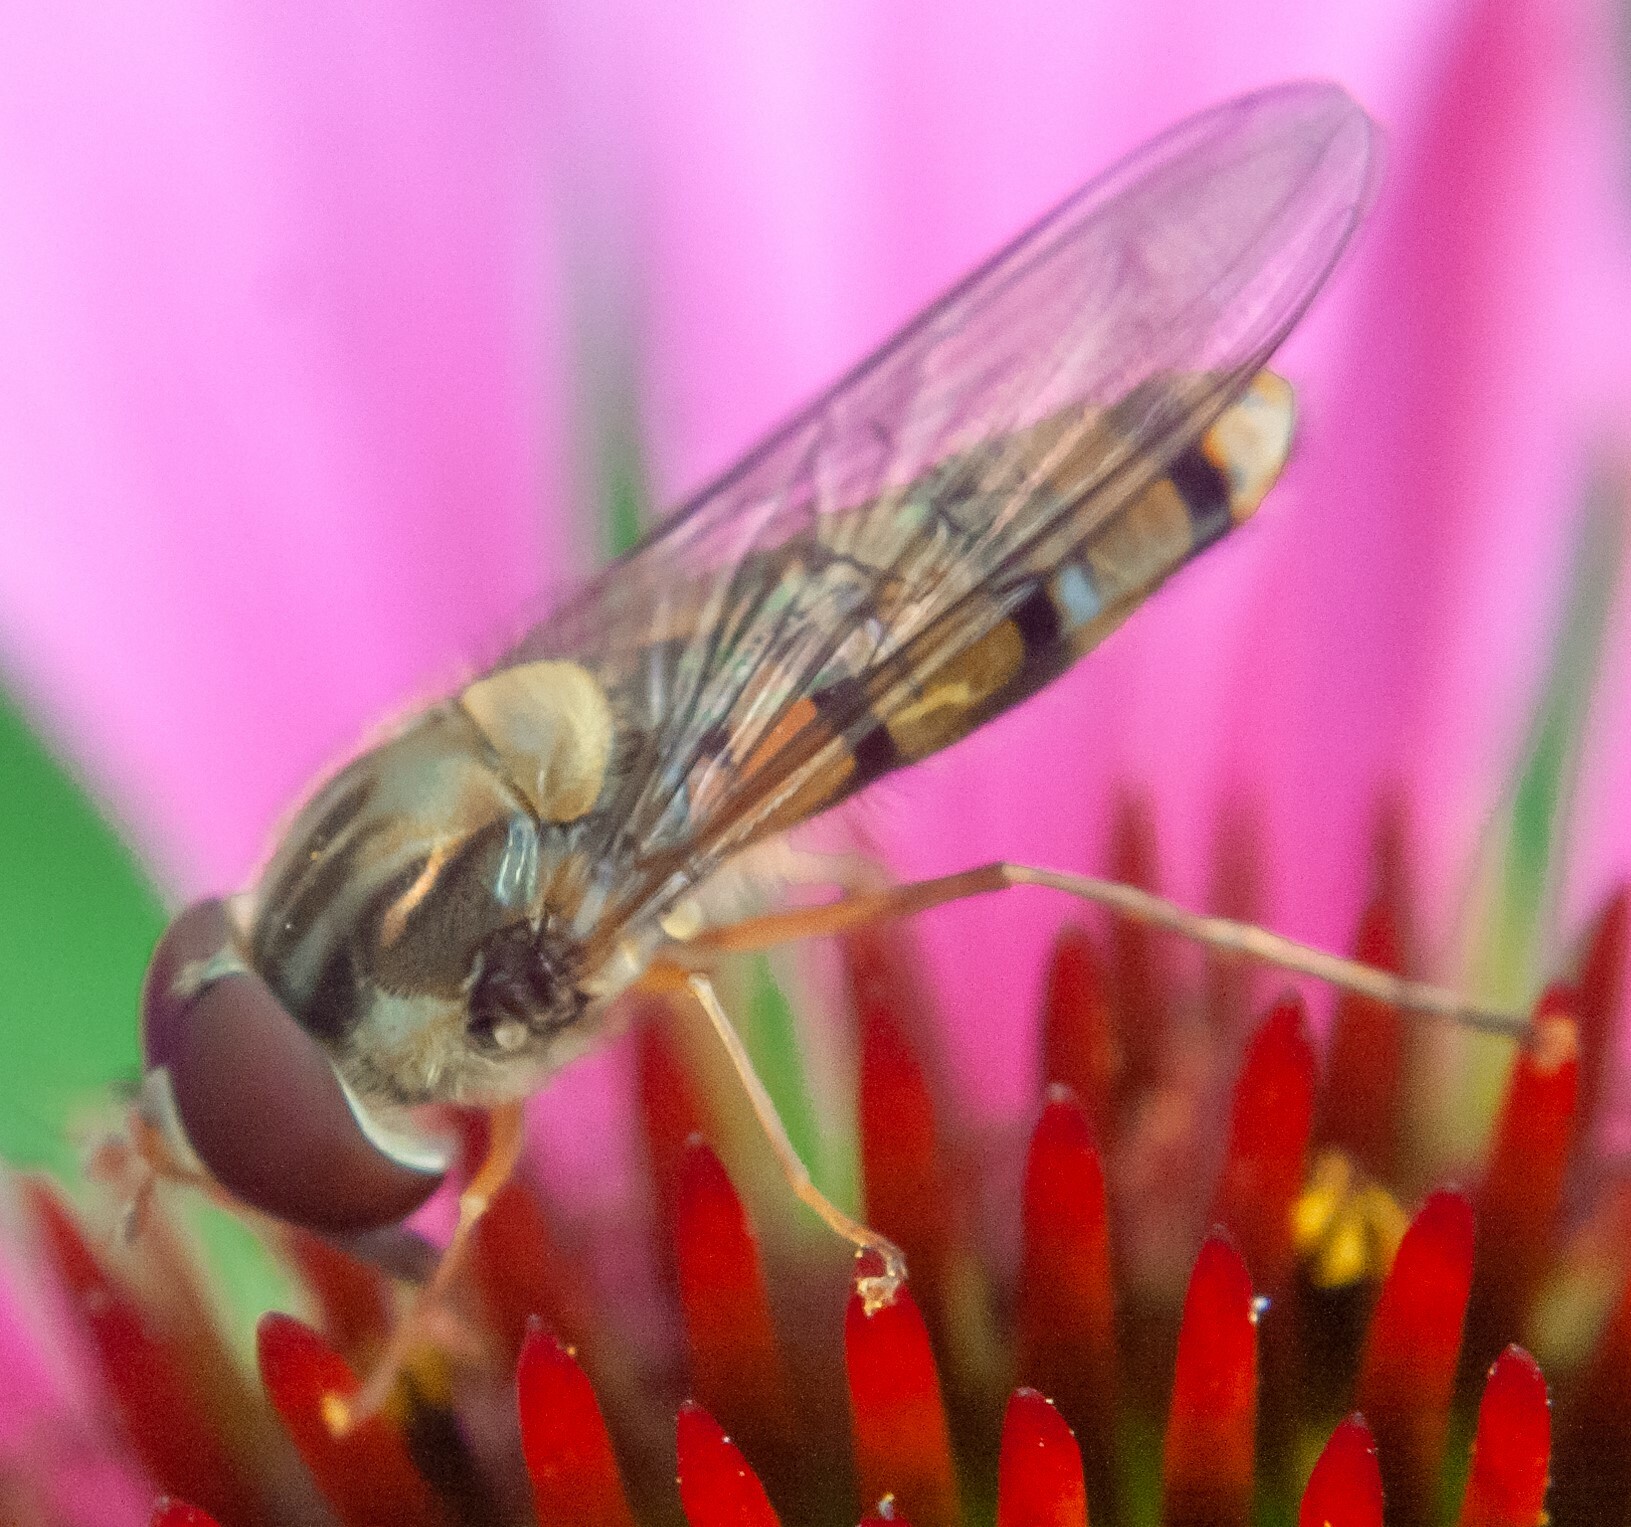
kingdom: Animalia
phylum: Arthropoda
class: Insecta
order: Diptera
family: Syrphidae
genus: Episyrphus
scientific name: Episyrphus balteatus
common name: Marmalade hoverfly
